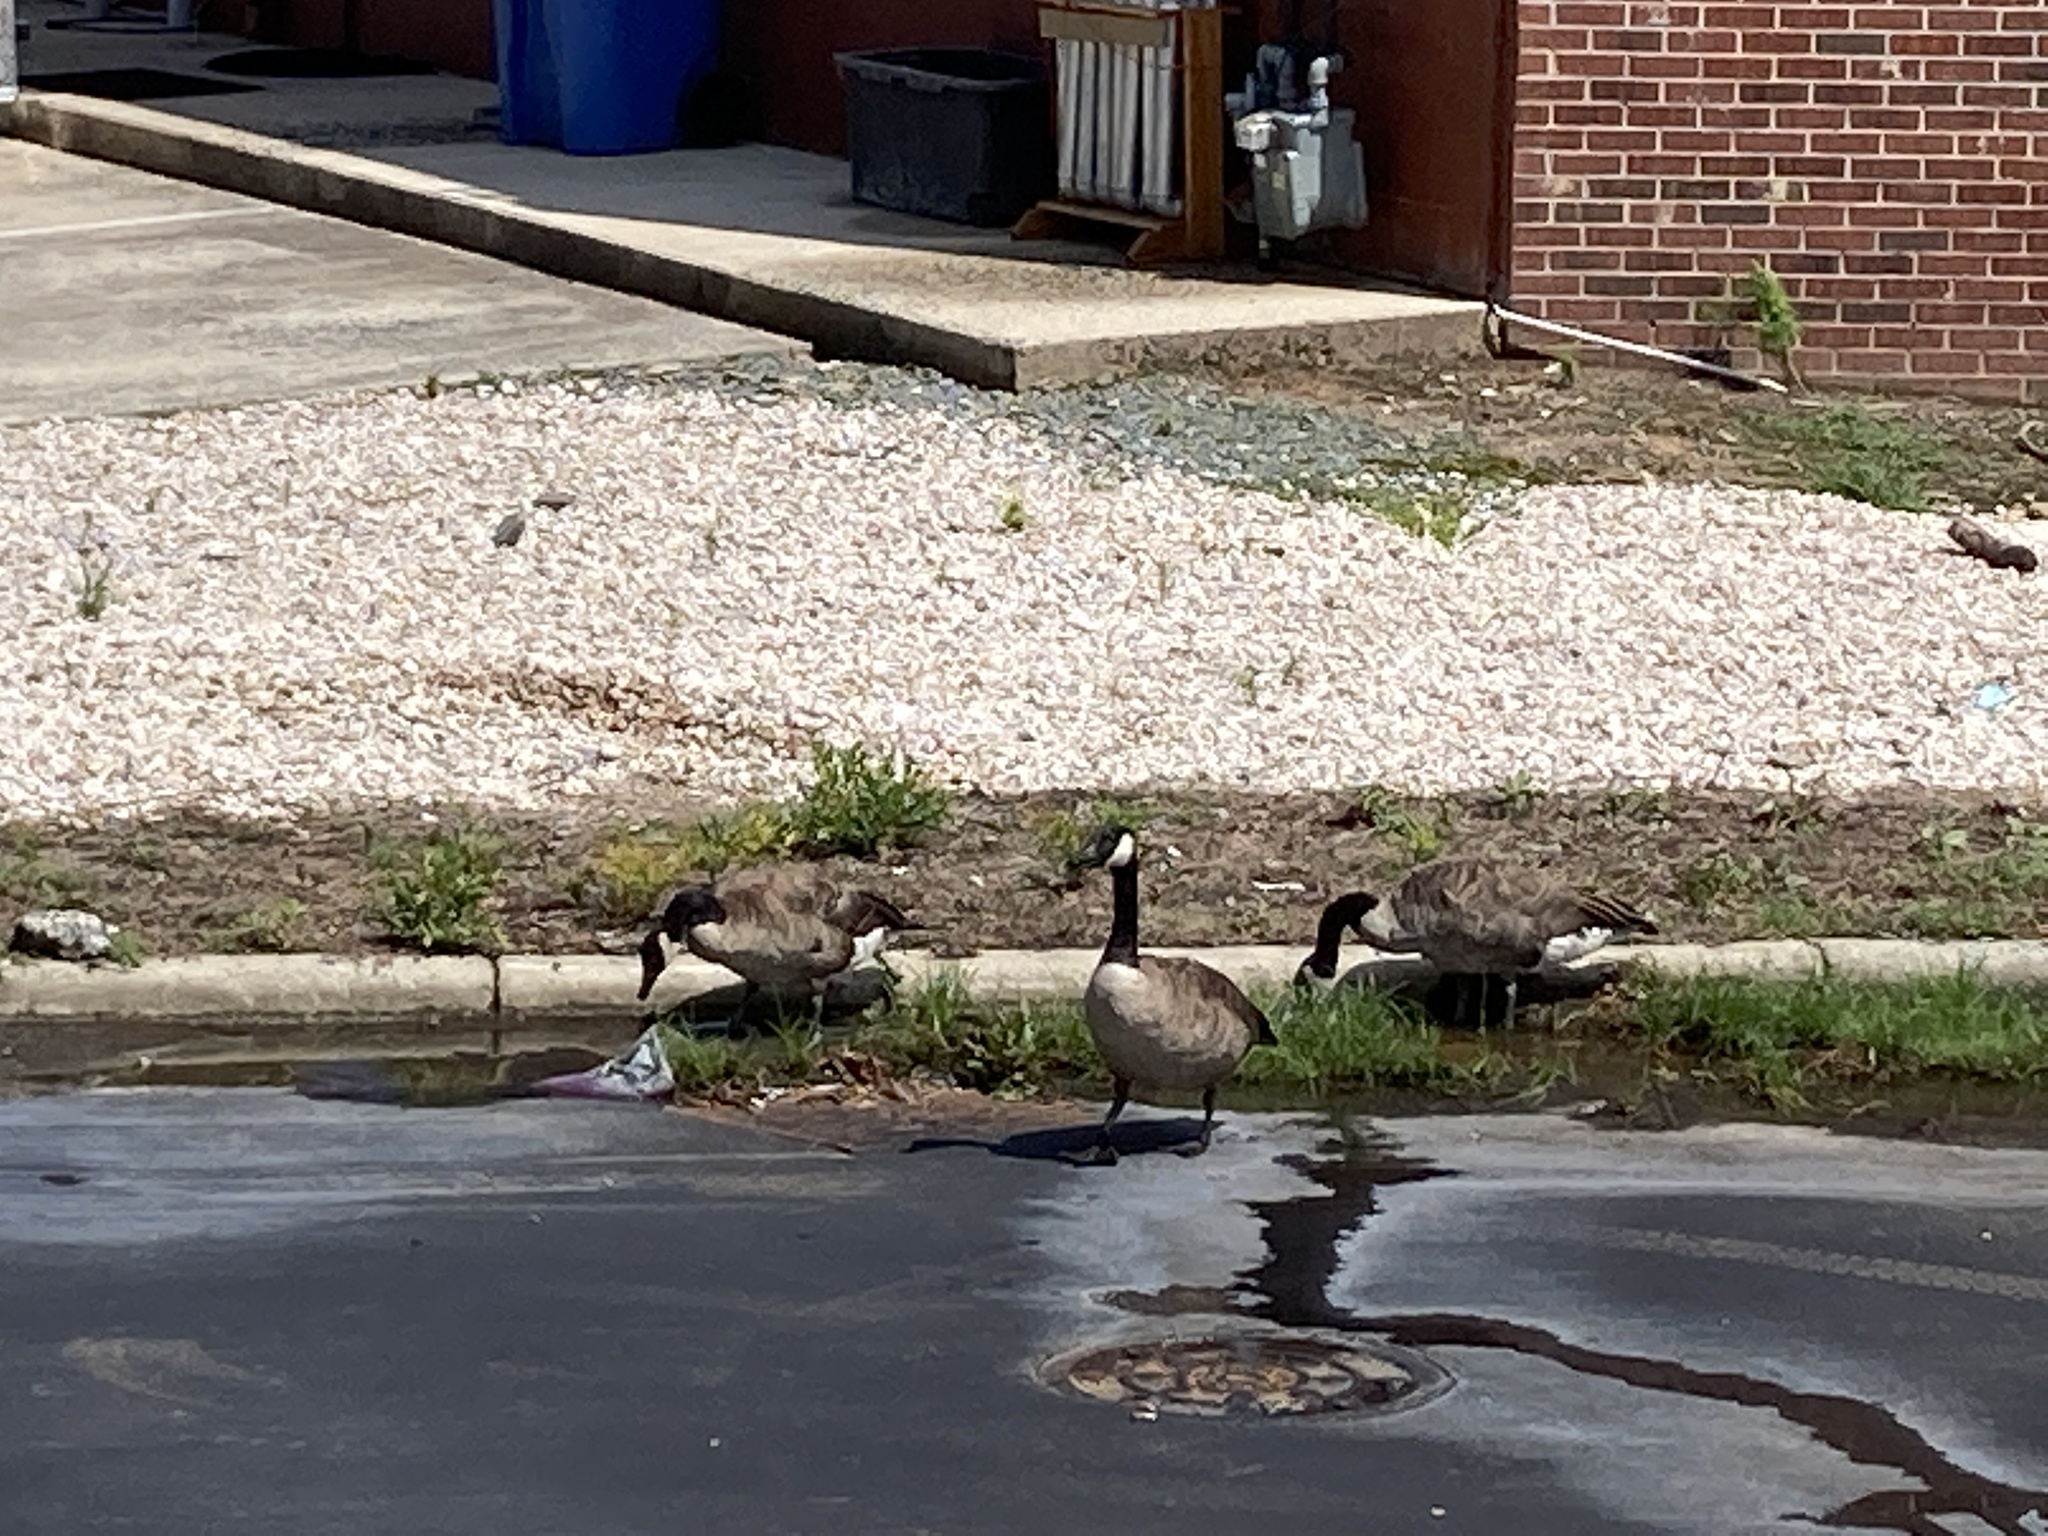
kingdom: Animalia
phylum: Chordata
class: Aves
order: Anseriformes
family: Anatidae
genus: Branta
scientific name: Branta canadensis
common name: Canada goose
